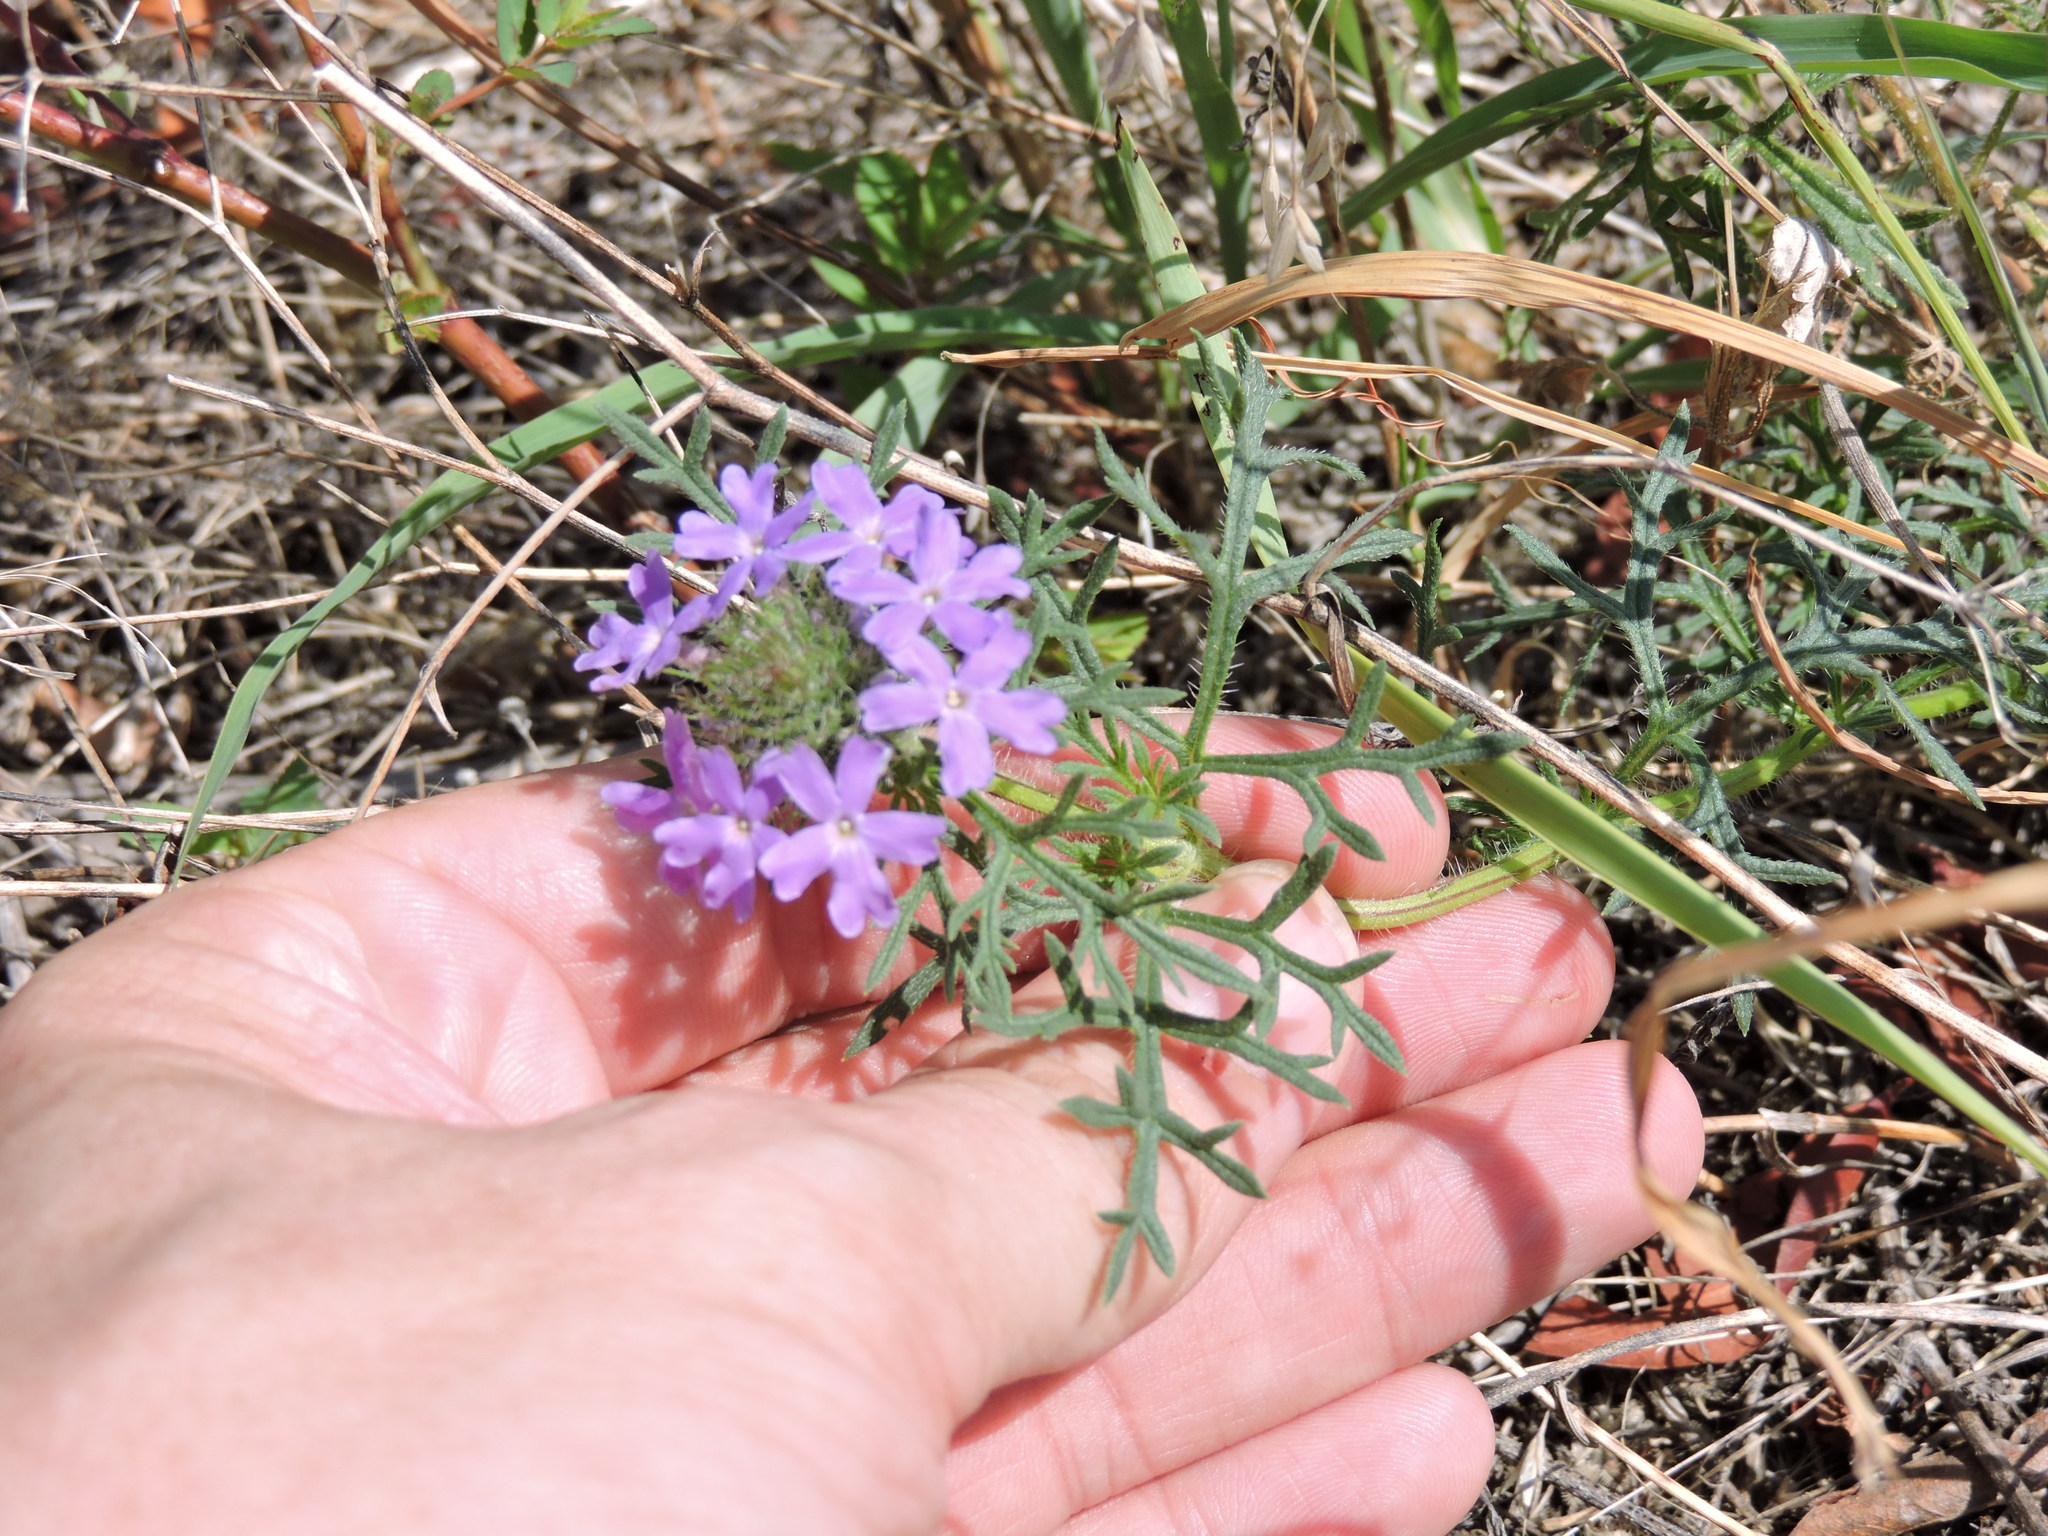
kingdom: Plantae
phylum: Tracheophyta
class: Magnoliopsida
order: Lamiales
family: Verbenaceae
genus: Verbena
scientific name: Verbena bipinnatifida
